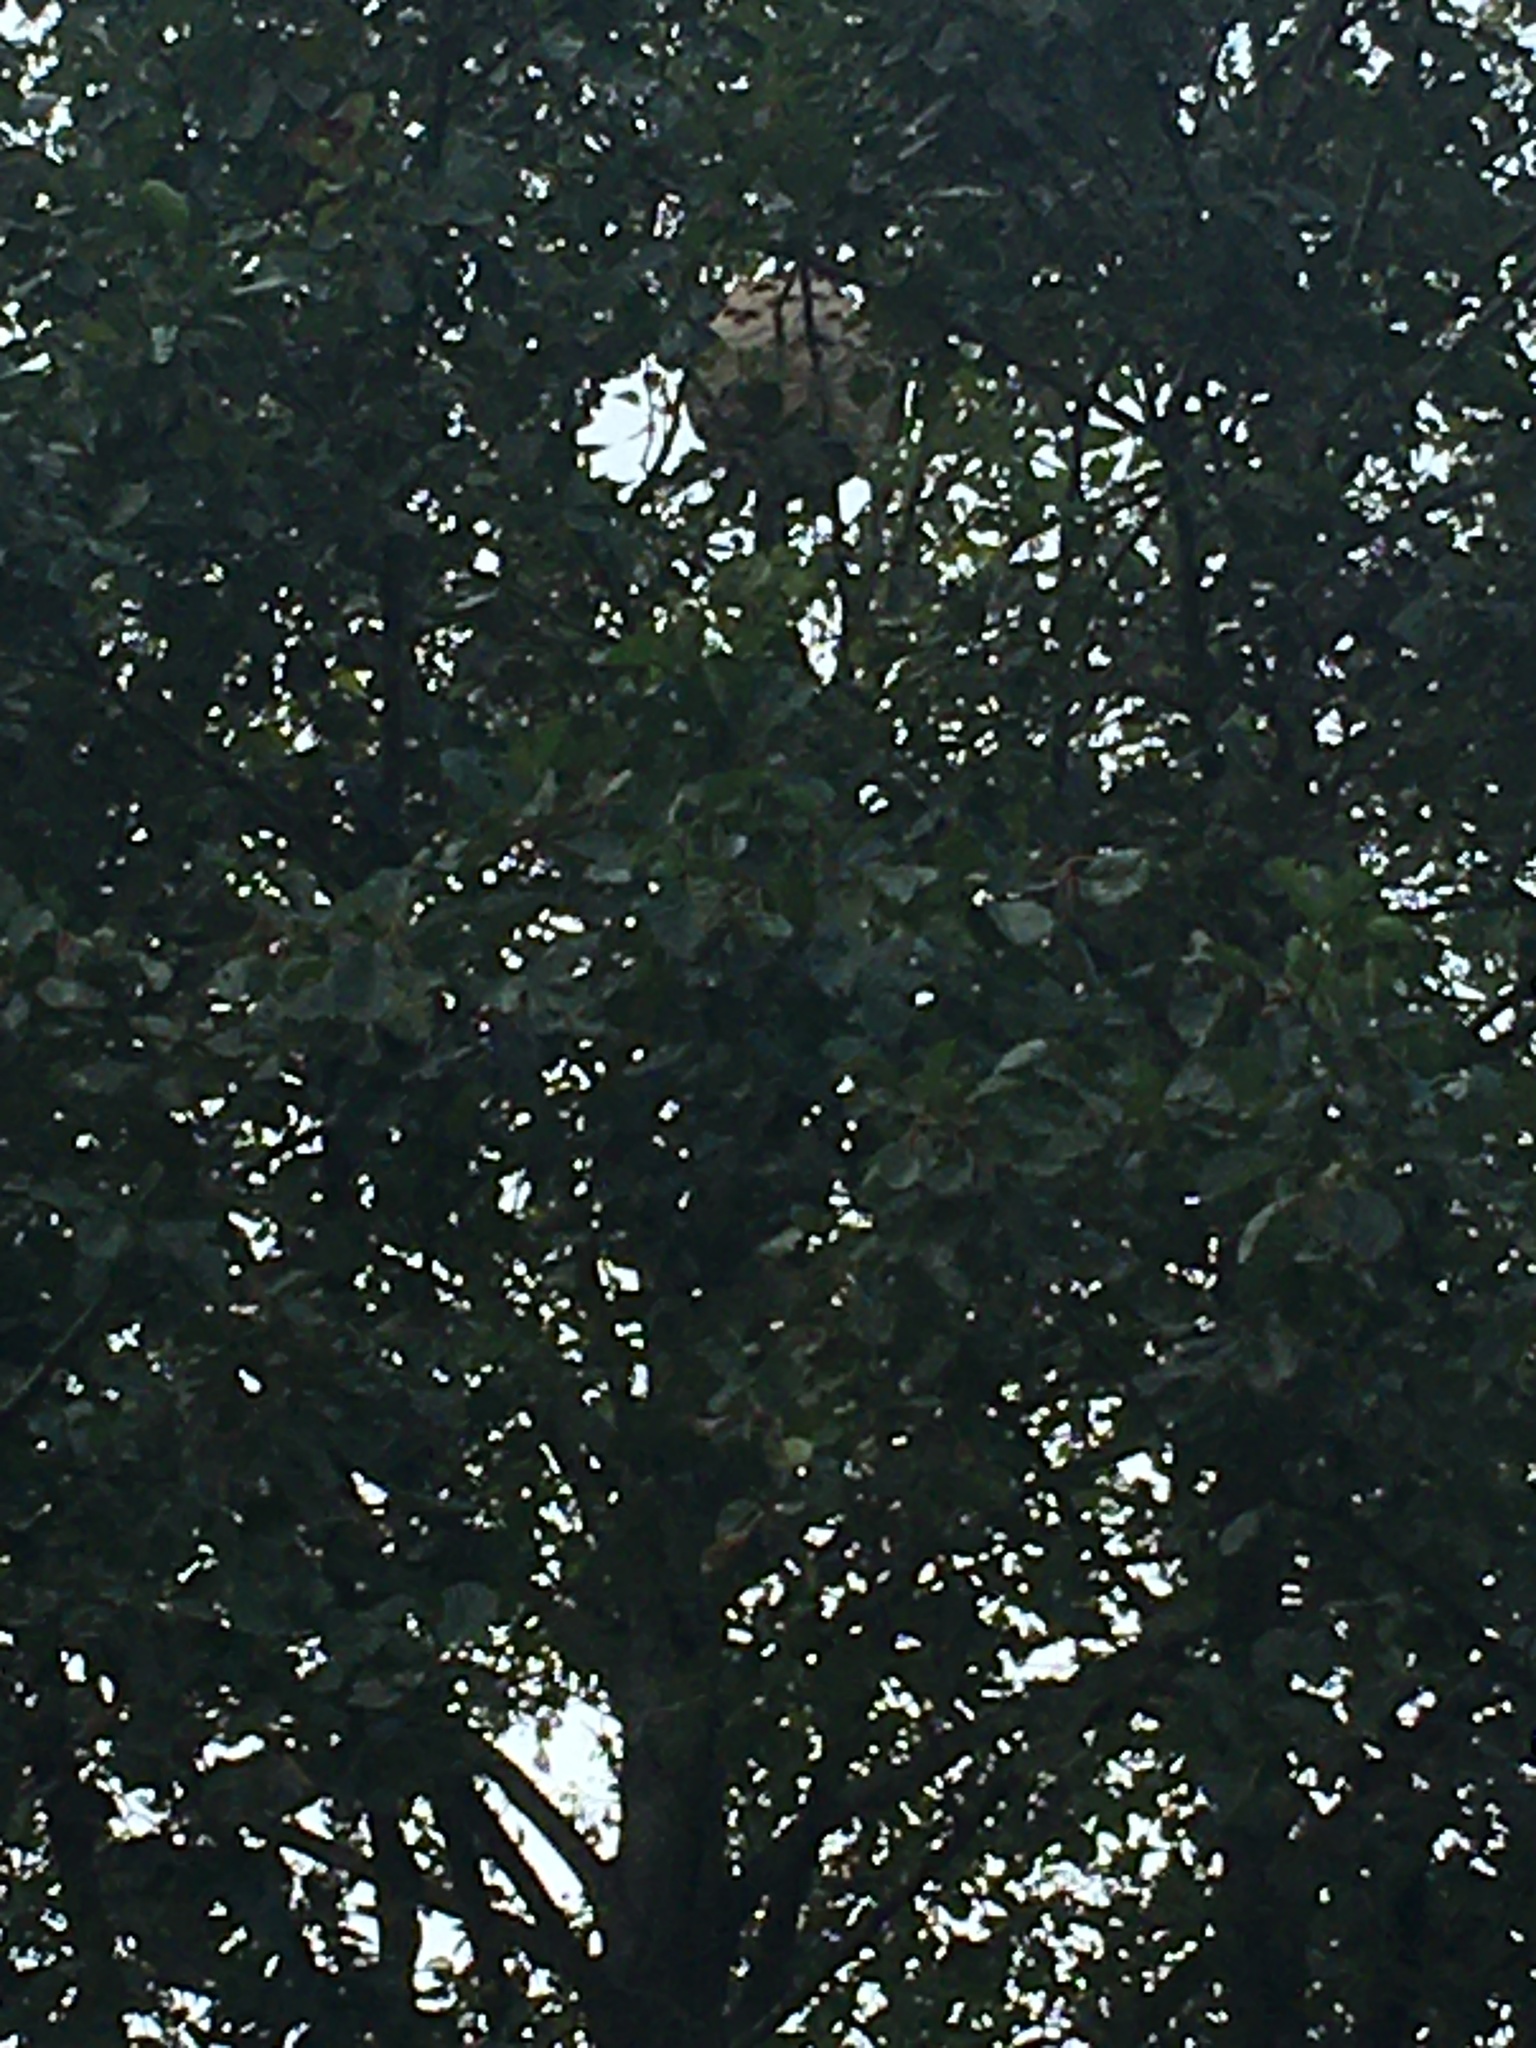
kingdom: Animalia
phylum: Arthropoda
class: Insecta
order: Hymenoptera
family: Vespidae
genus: Vespa
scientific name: Vespa velutina
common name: Asian hornet
